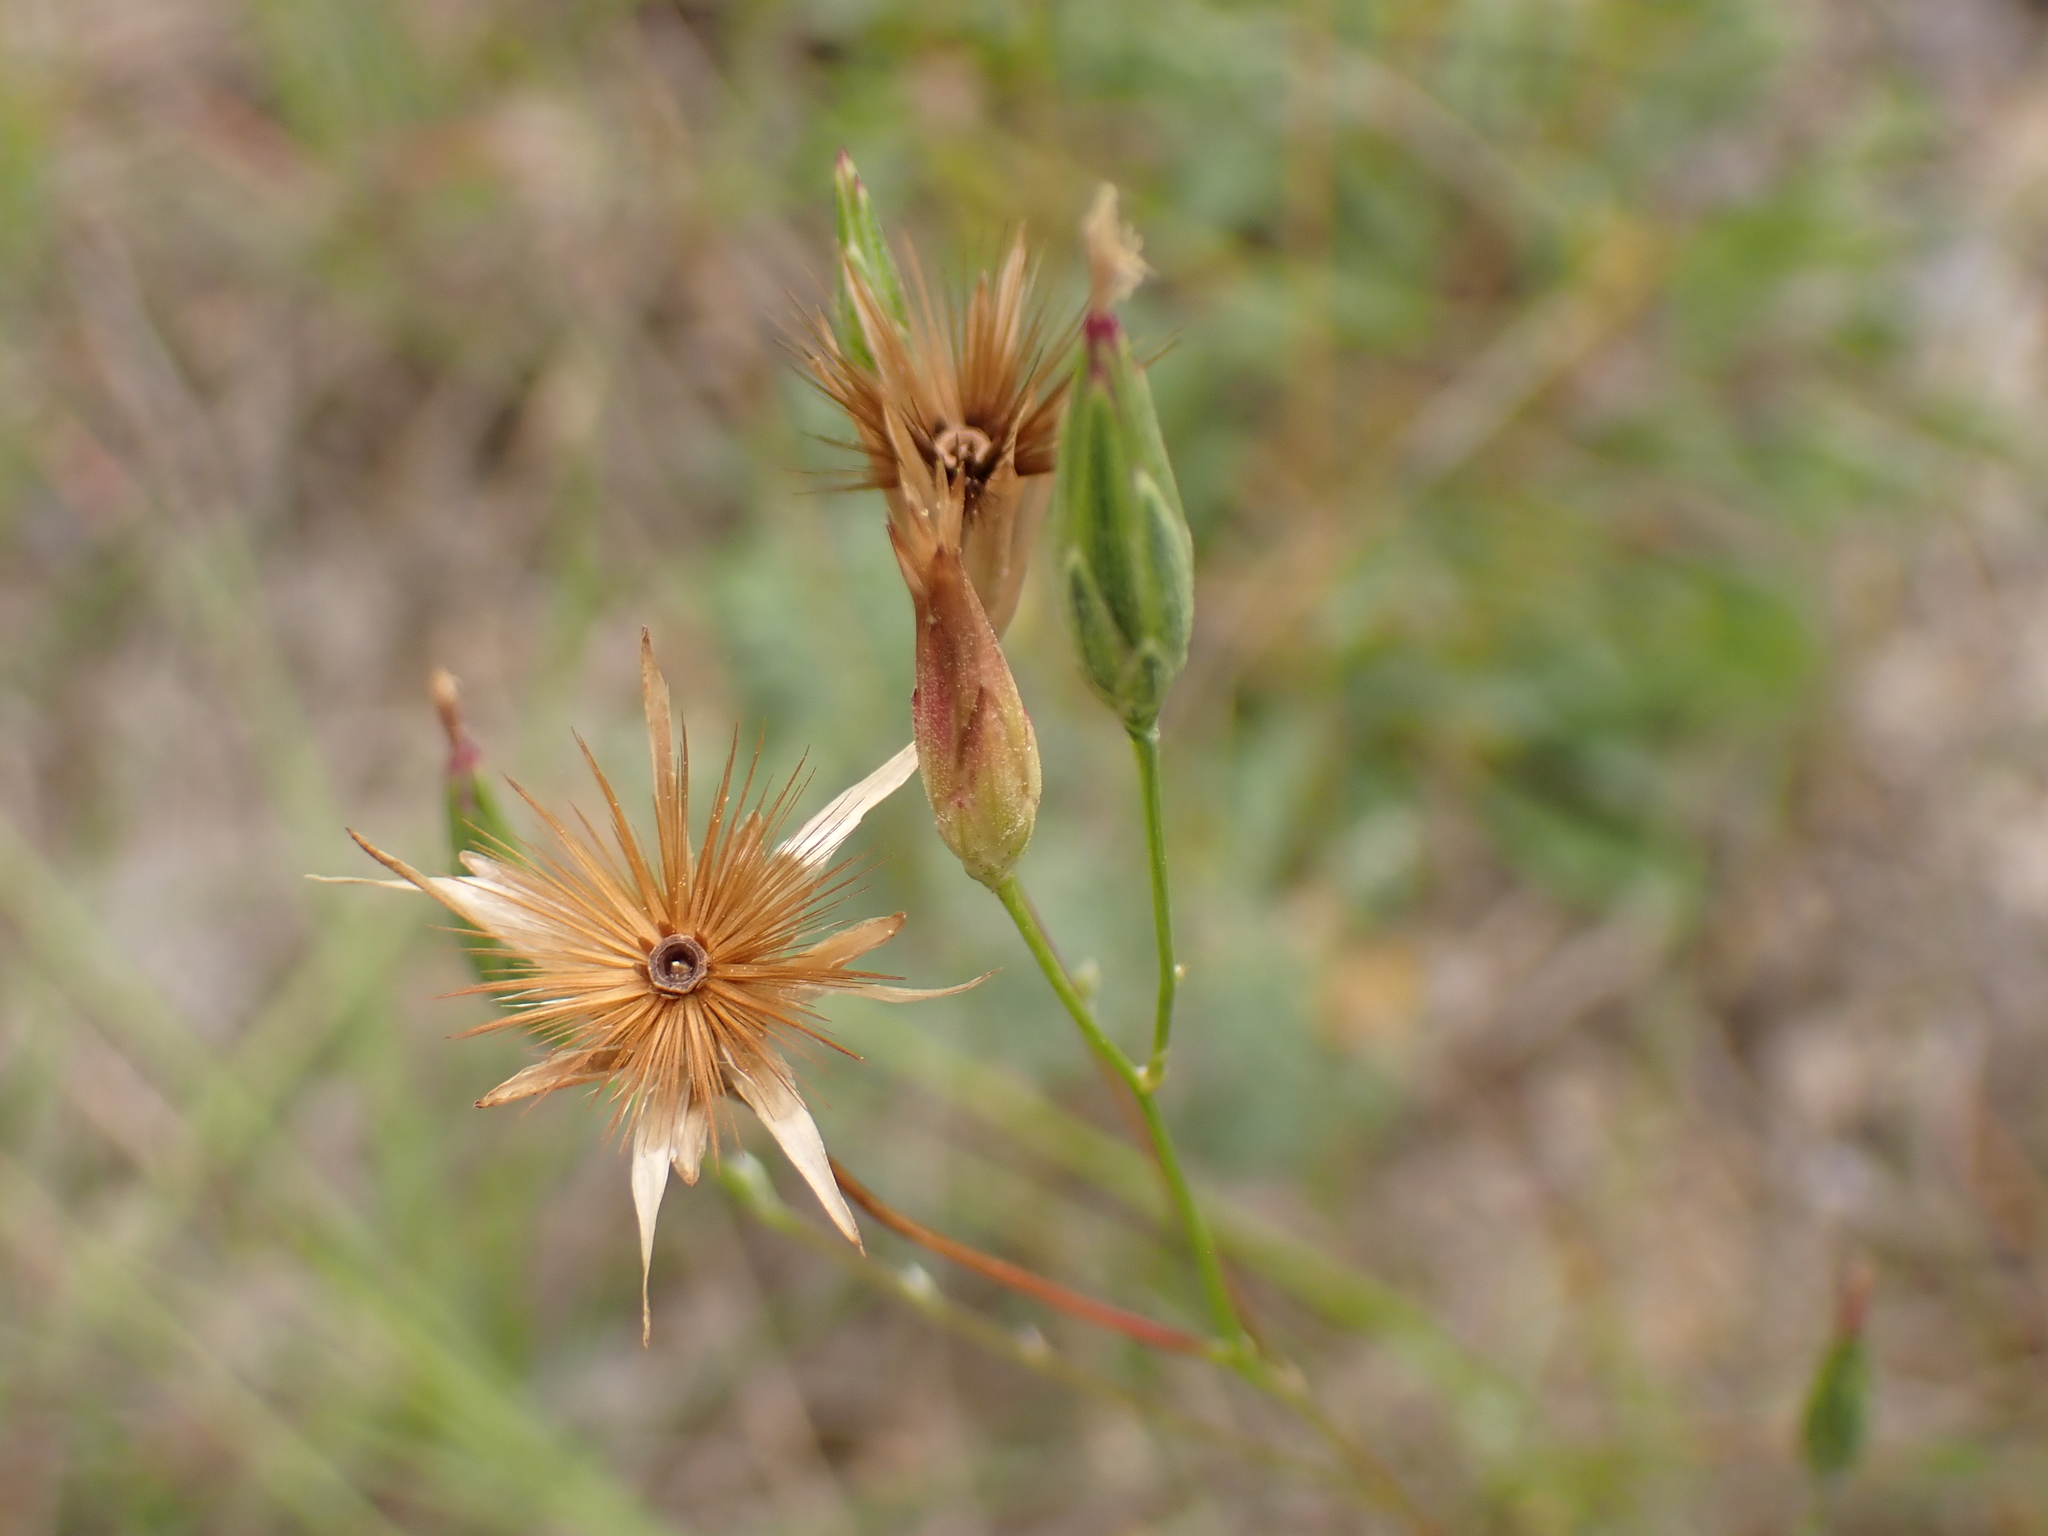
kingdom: Plantae
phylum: Tracheophyta
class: Magnoliopsida
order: Asterales
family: Asteraceae
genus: Crupina
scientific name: Crupina vulgaris
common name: Common crupina
